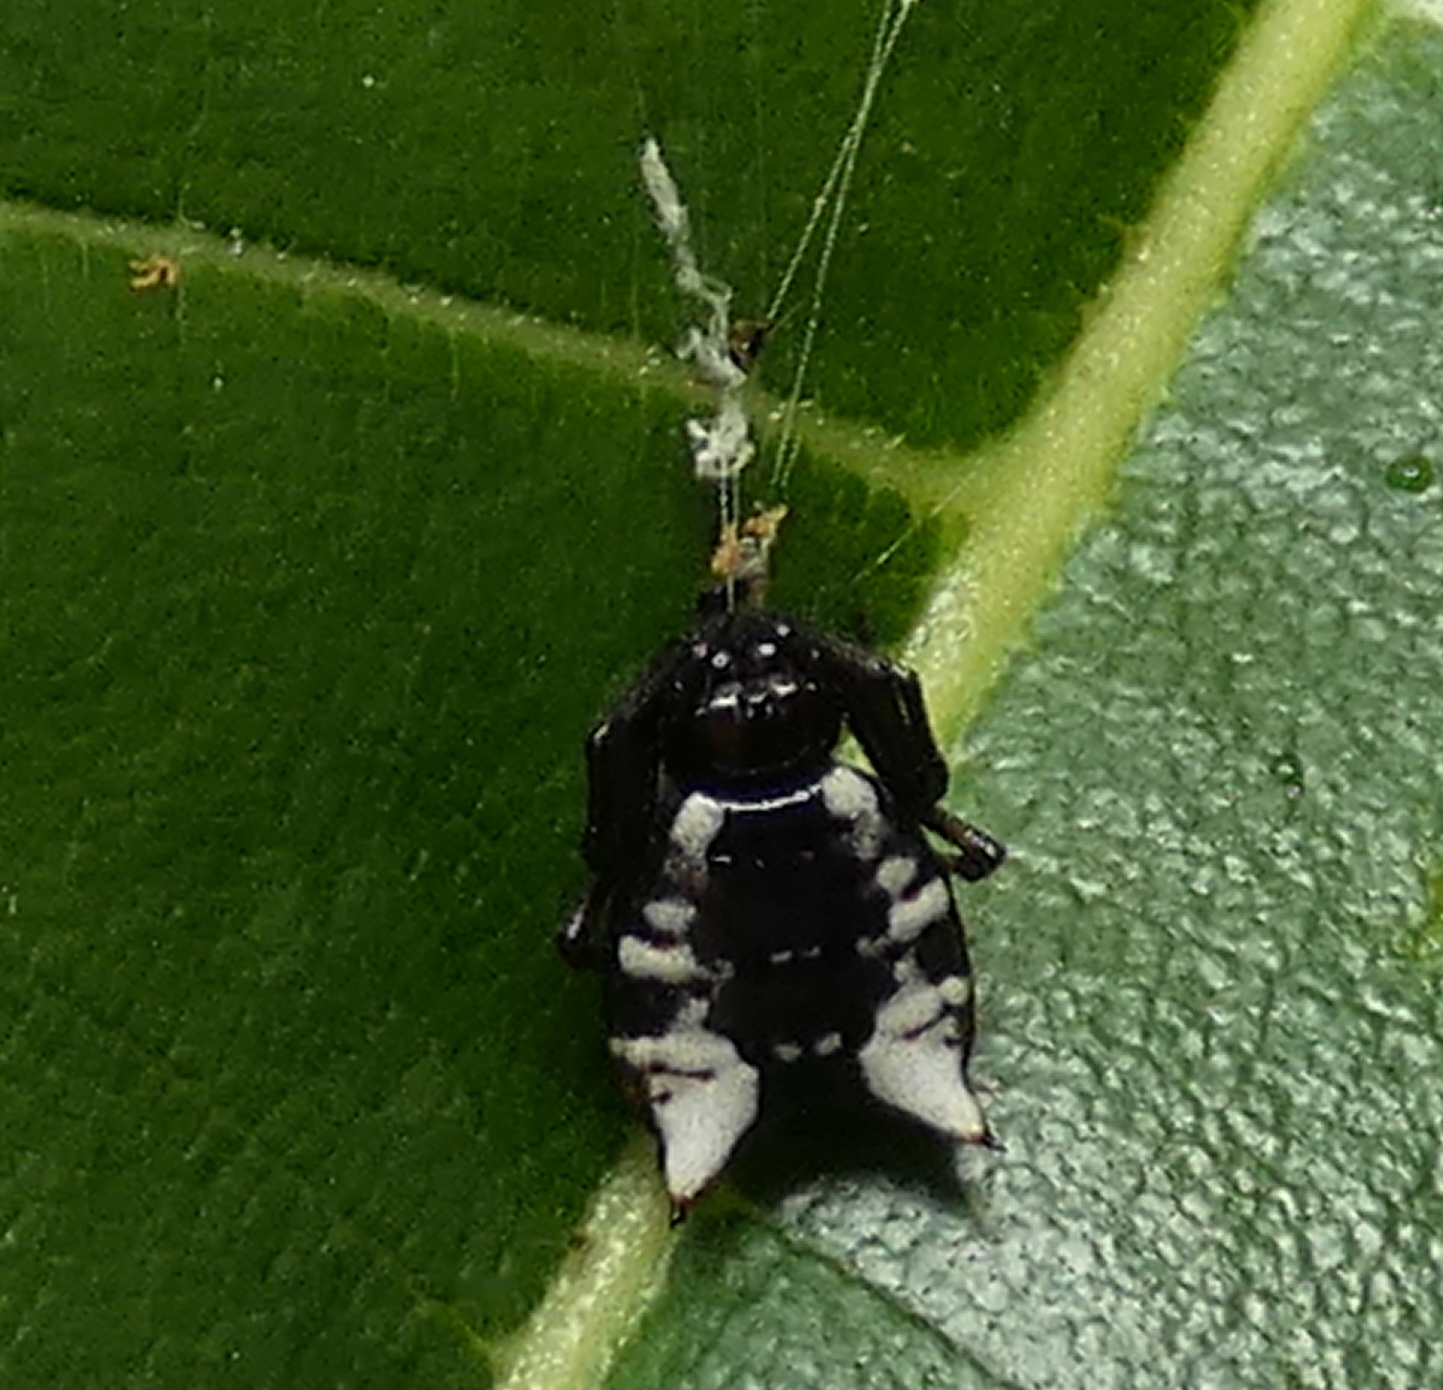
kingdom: Animalia
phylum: Arthropoda
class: Arachnida
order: Araneae
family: Araneidae
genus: Micrathena
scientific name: Micrathena patruelis
